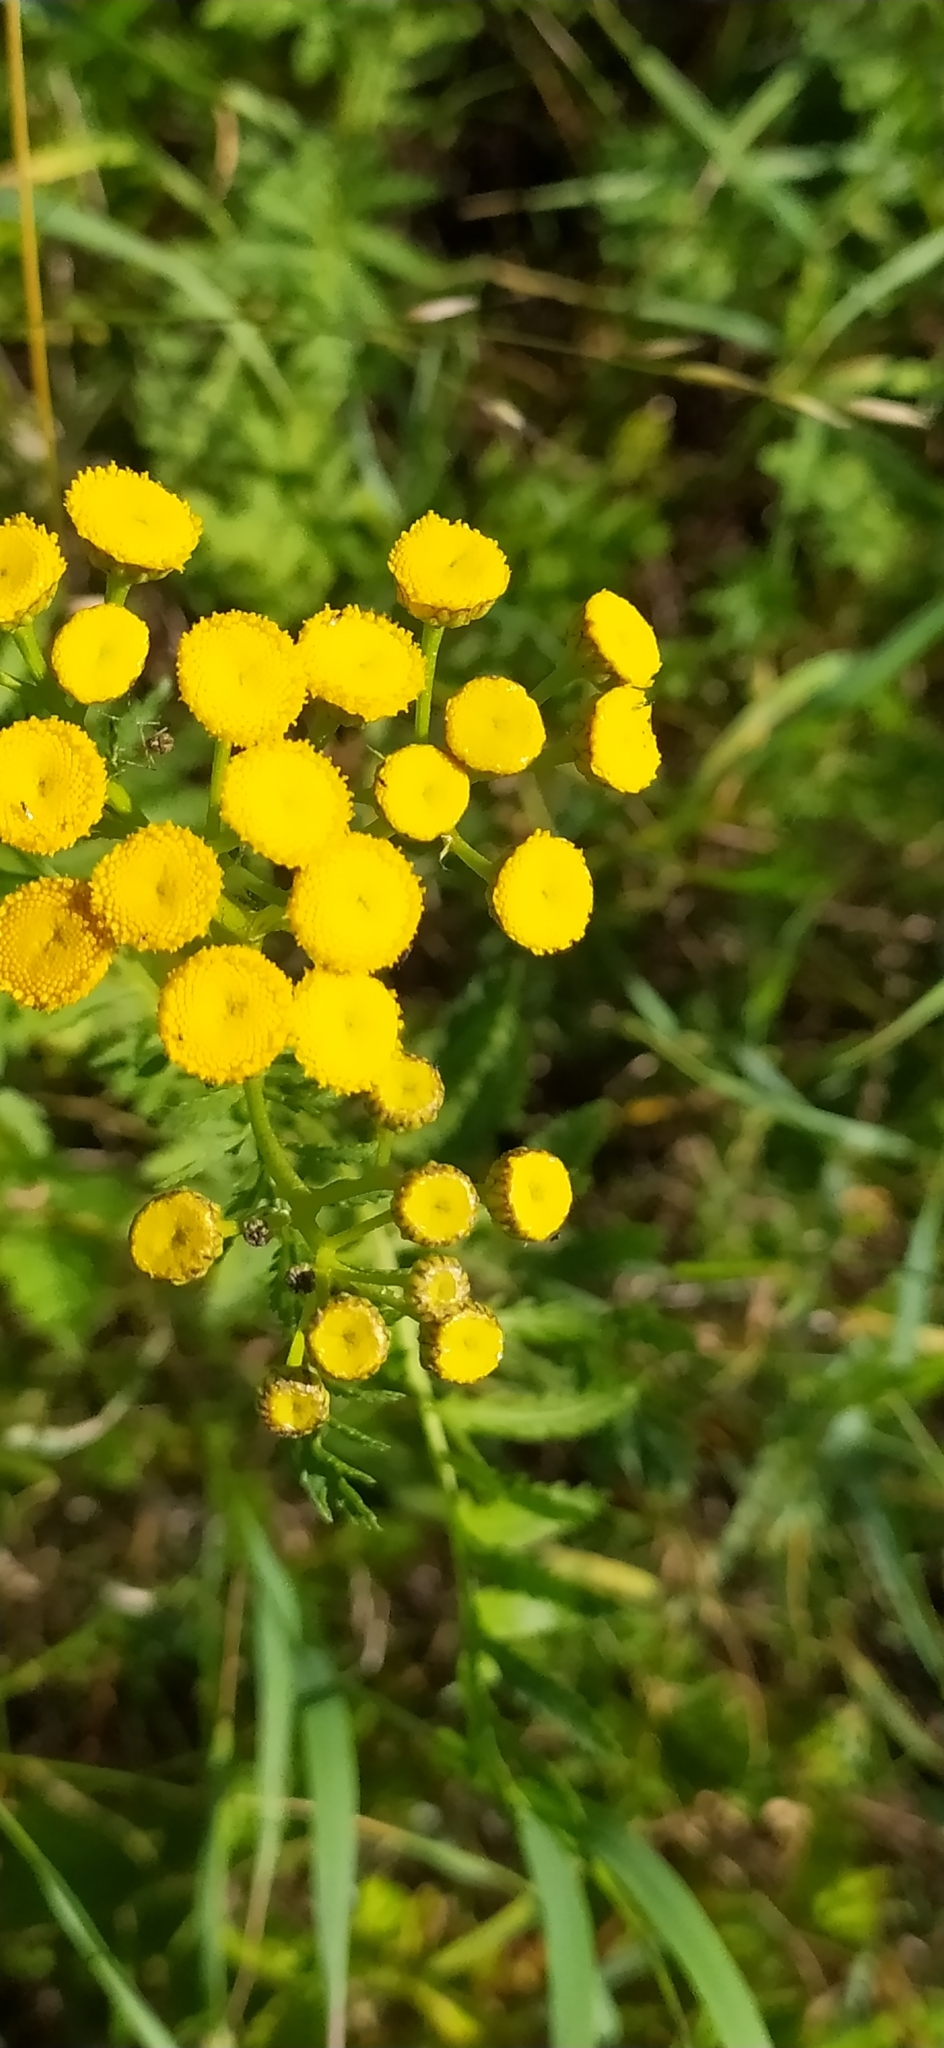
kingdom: Plantae
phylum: Tracheophyta
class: Magnoliopsida
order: Asterales
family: Asteraceae
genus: Tanacetum
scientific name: Tanacetum vulgare
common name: Common tansy
